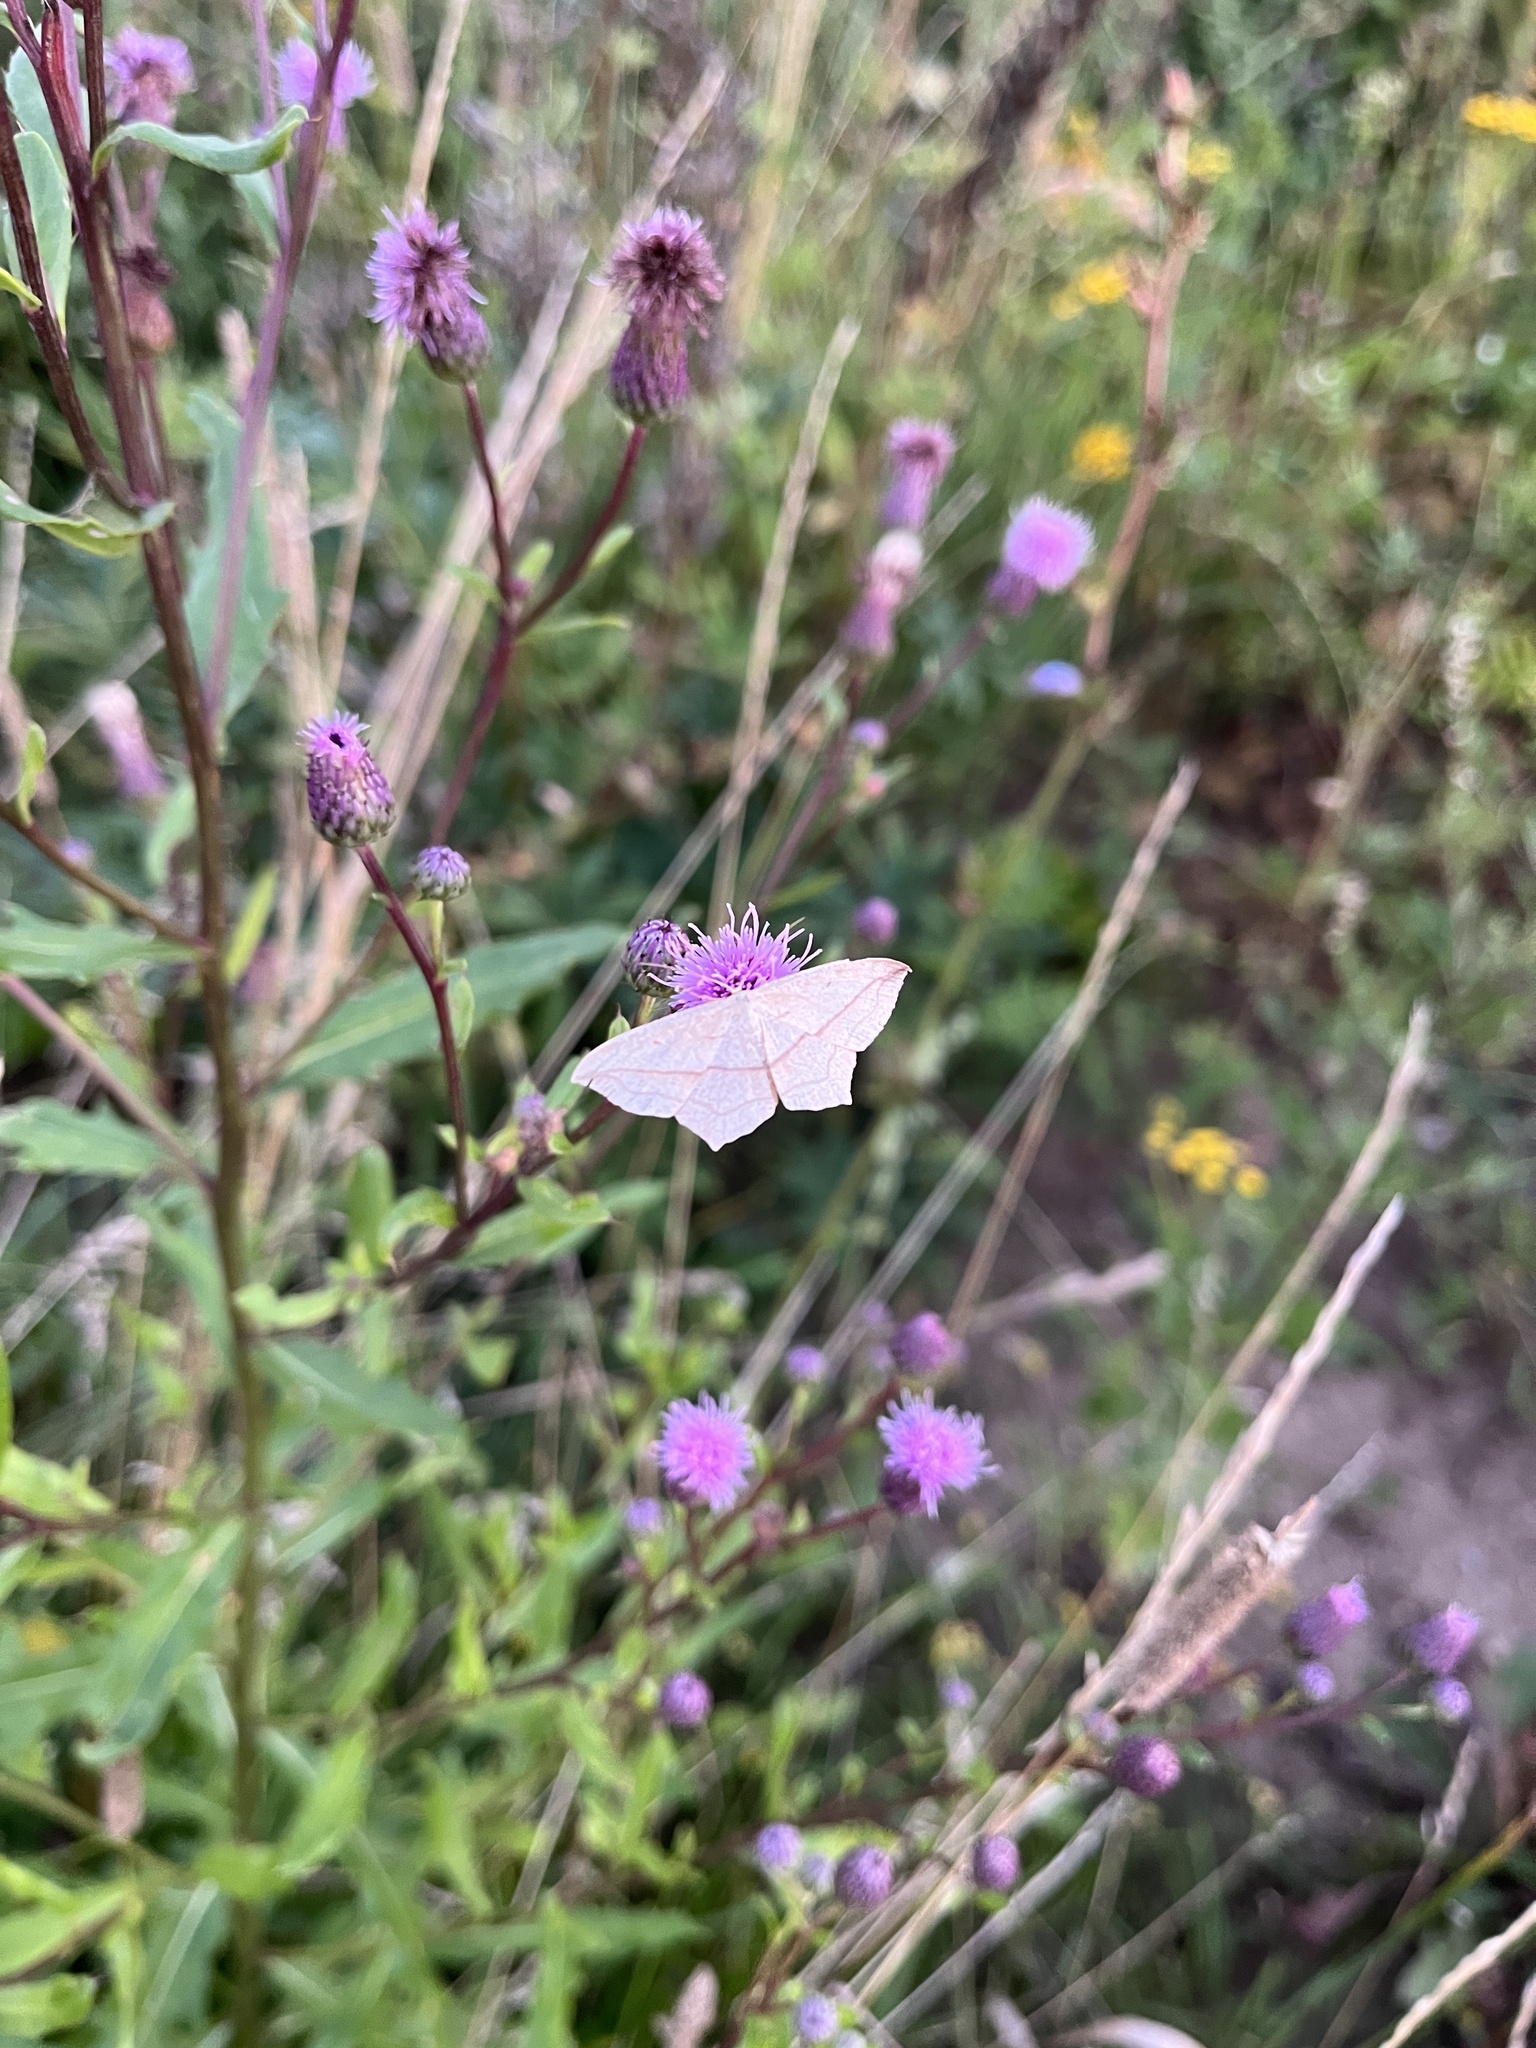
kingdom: Animalia
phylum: Arthropoda
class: Insecta
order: Lepidoptera
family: Geometridae
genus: Timandra
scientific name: Timandra comae
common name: Blood-vein
